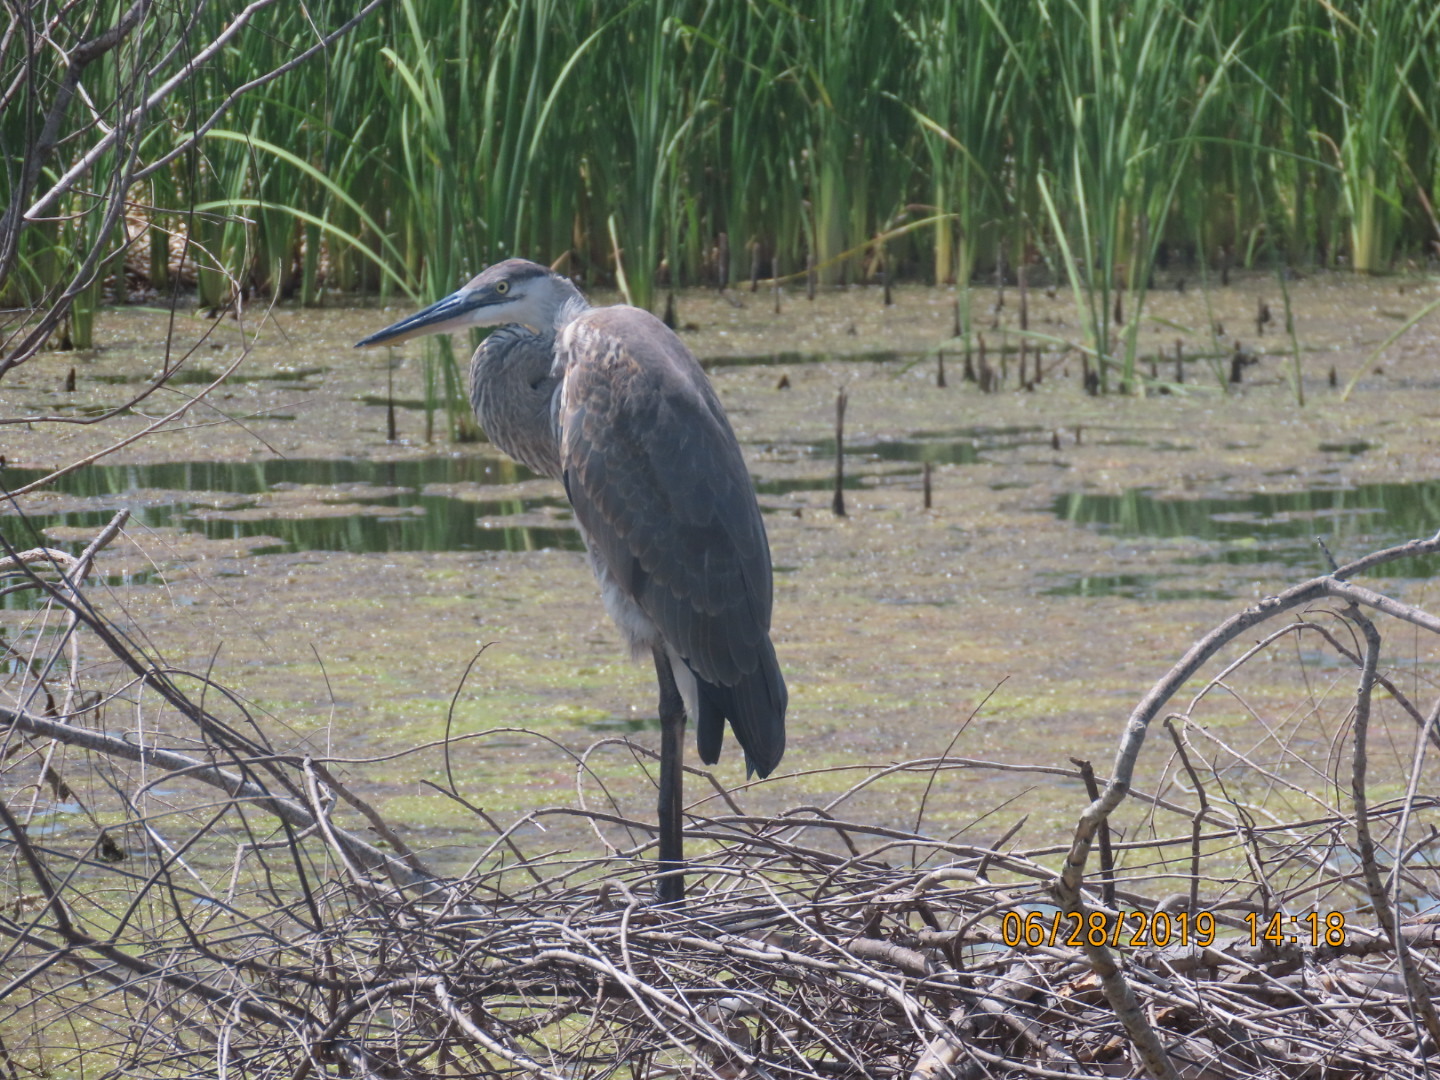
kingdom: Animalia
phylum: Chordata
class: Aves
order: Pelecaniformes
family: Ardeidae
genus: Ardea
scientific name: Ardea herodias
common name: Great blue heron
